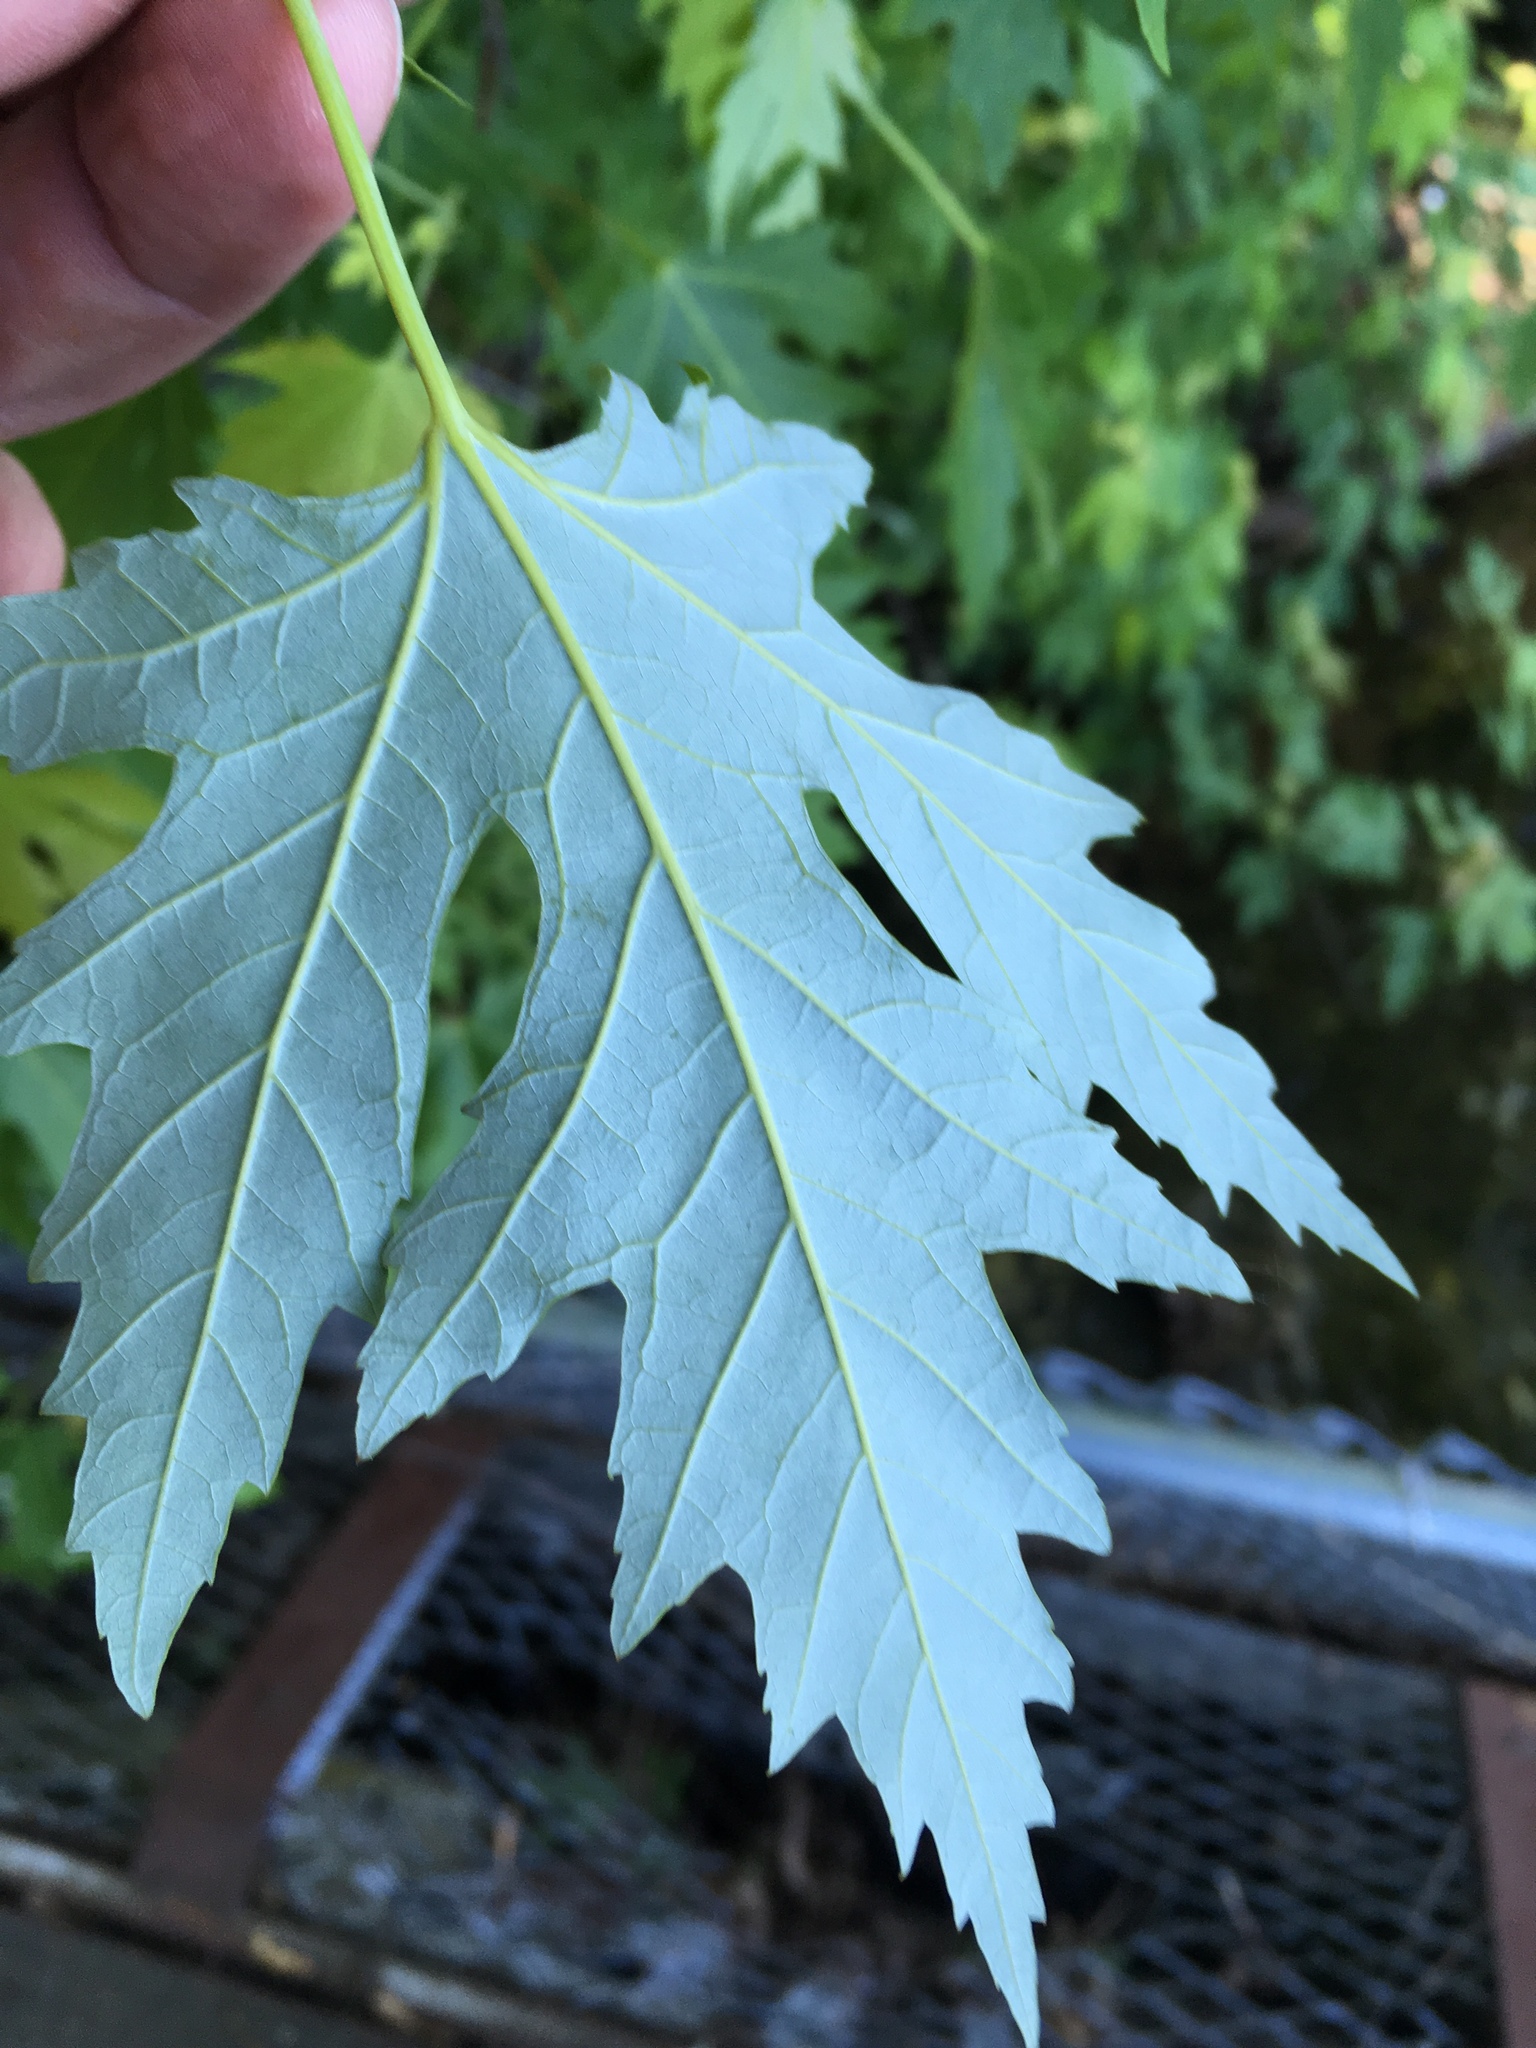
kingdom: Plantae
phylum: Tracheophyta
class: Magnoliopsida
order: Sapindales
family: Sapindaceae
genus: Acer
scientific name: Acer saccharinum
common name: Silver maple
